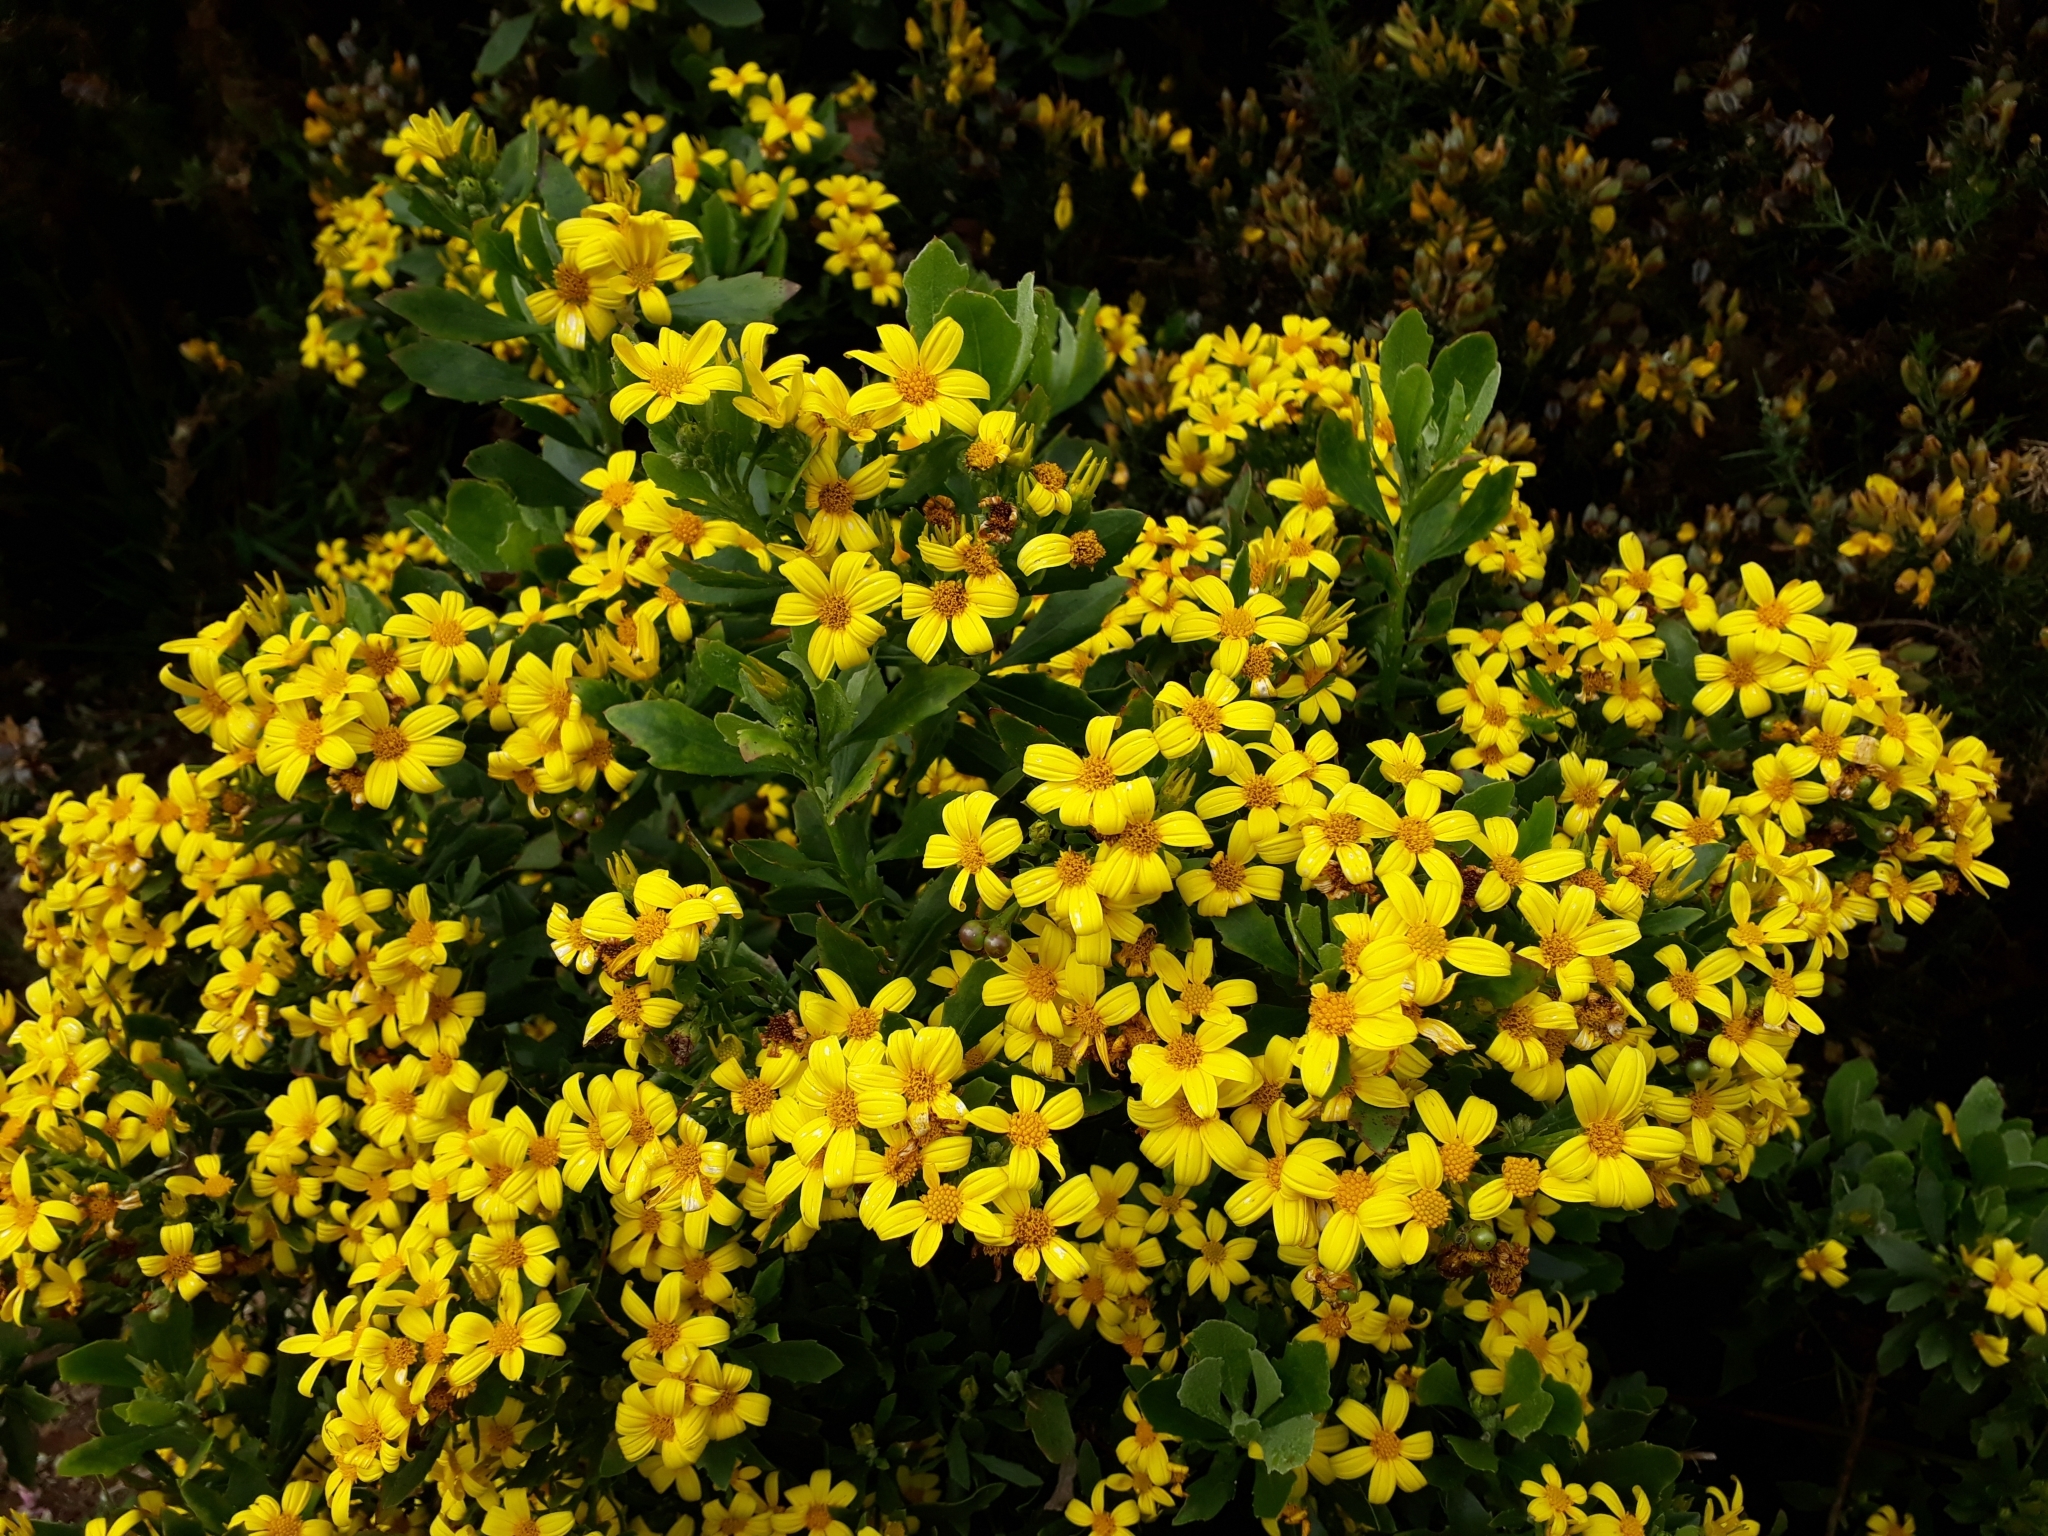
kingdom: Plantae
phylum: Tracheophyta
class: Magnoliopsida
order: Asterales
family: Asteraceae
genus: Osteospermum
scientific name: Osteospermum moniliferum
